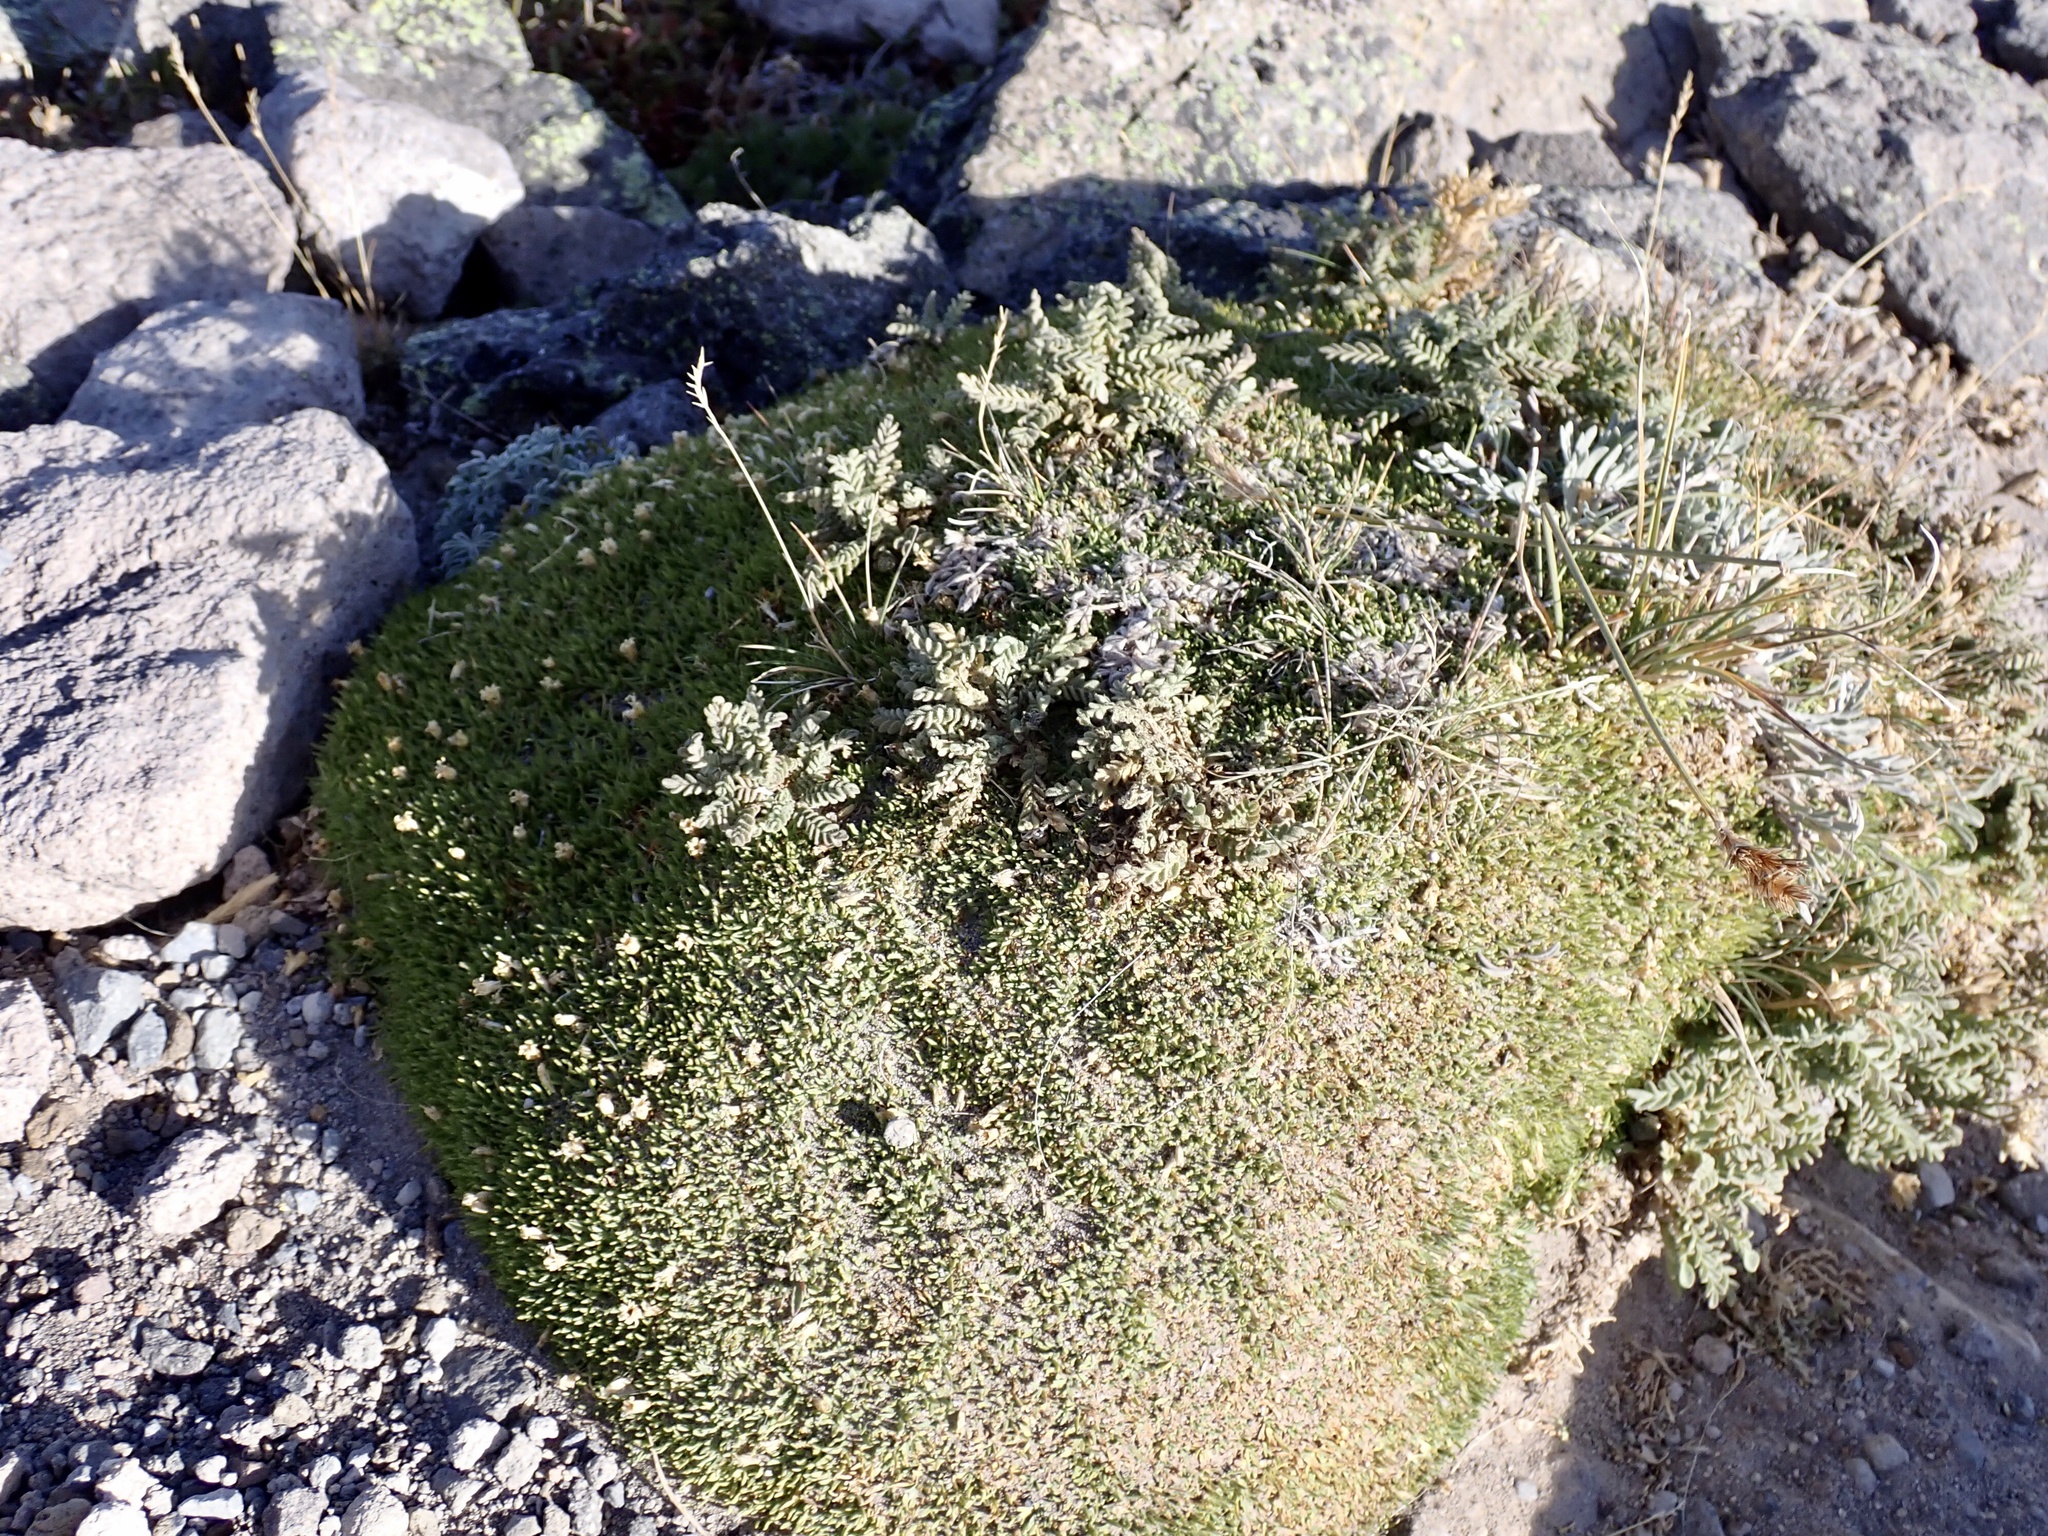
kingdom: Plantae
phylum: Tracheophyta
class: Magnoliopsida
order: Caryophyllales
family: Caryophyllaceae
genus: Silene
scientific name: Silene acaulis
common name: Moss campion
